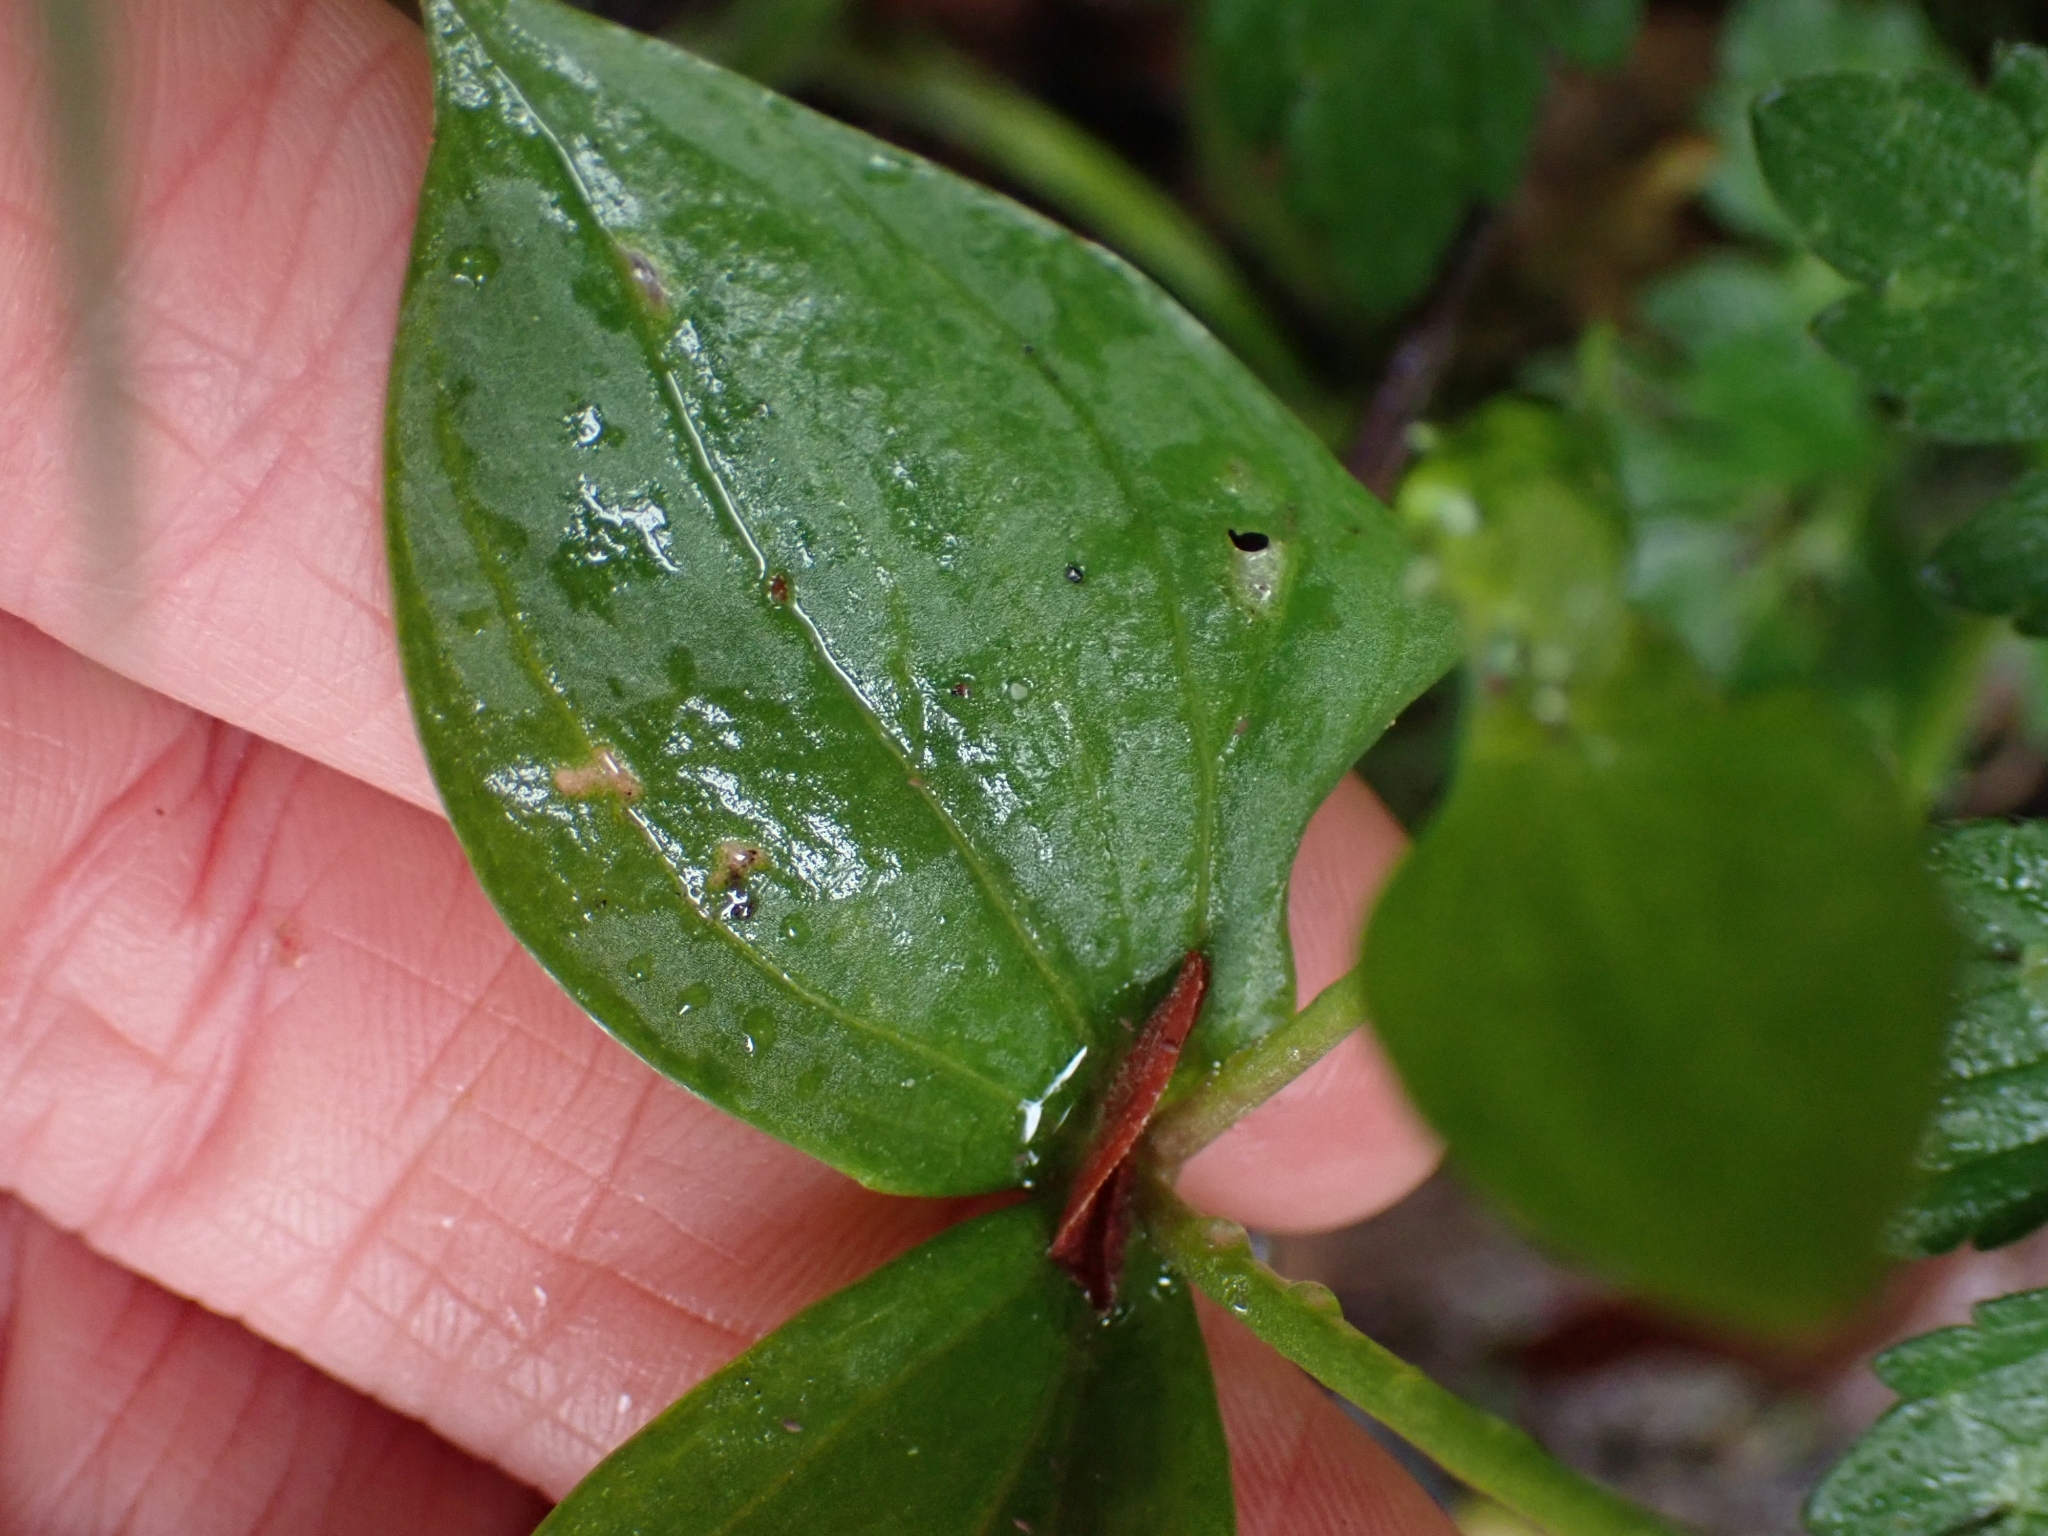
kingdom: Plantae
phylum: Tracheophyta
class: Magnoliopsida
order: Caryophyllales
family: Montiaceae
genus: Claytonia
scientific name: Claytonia sibirica
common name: Pink purslane
